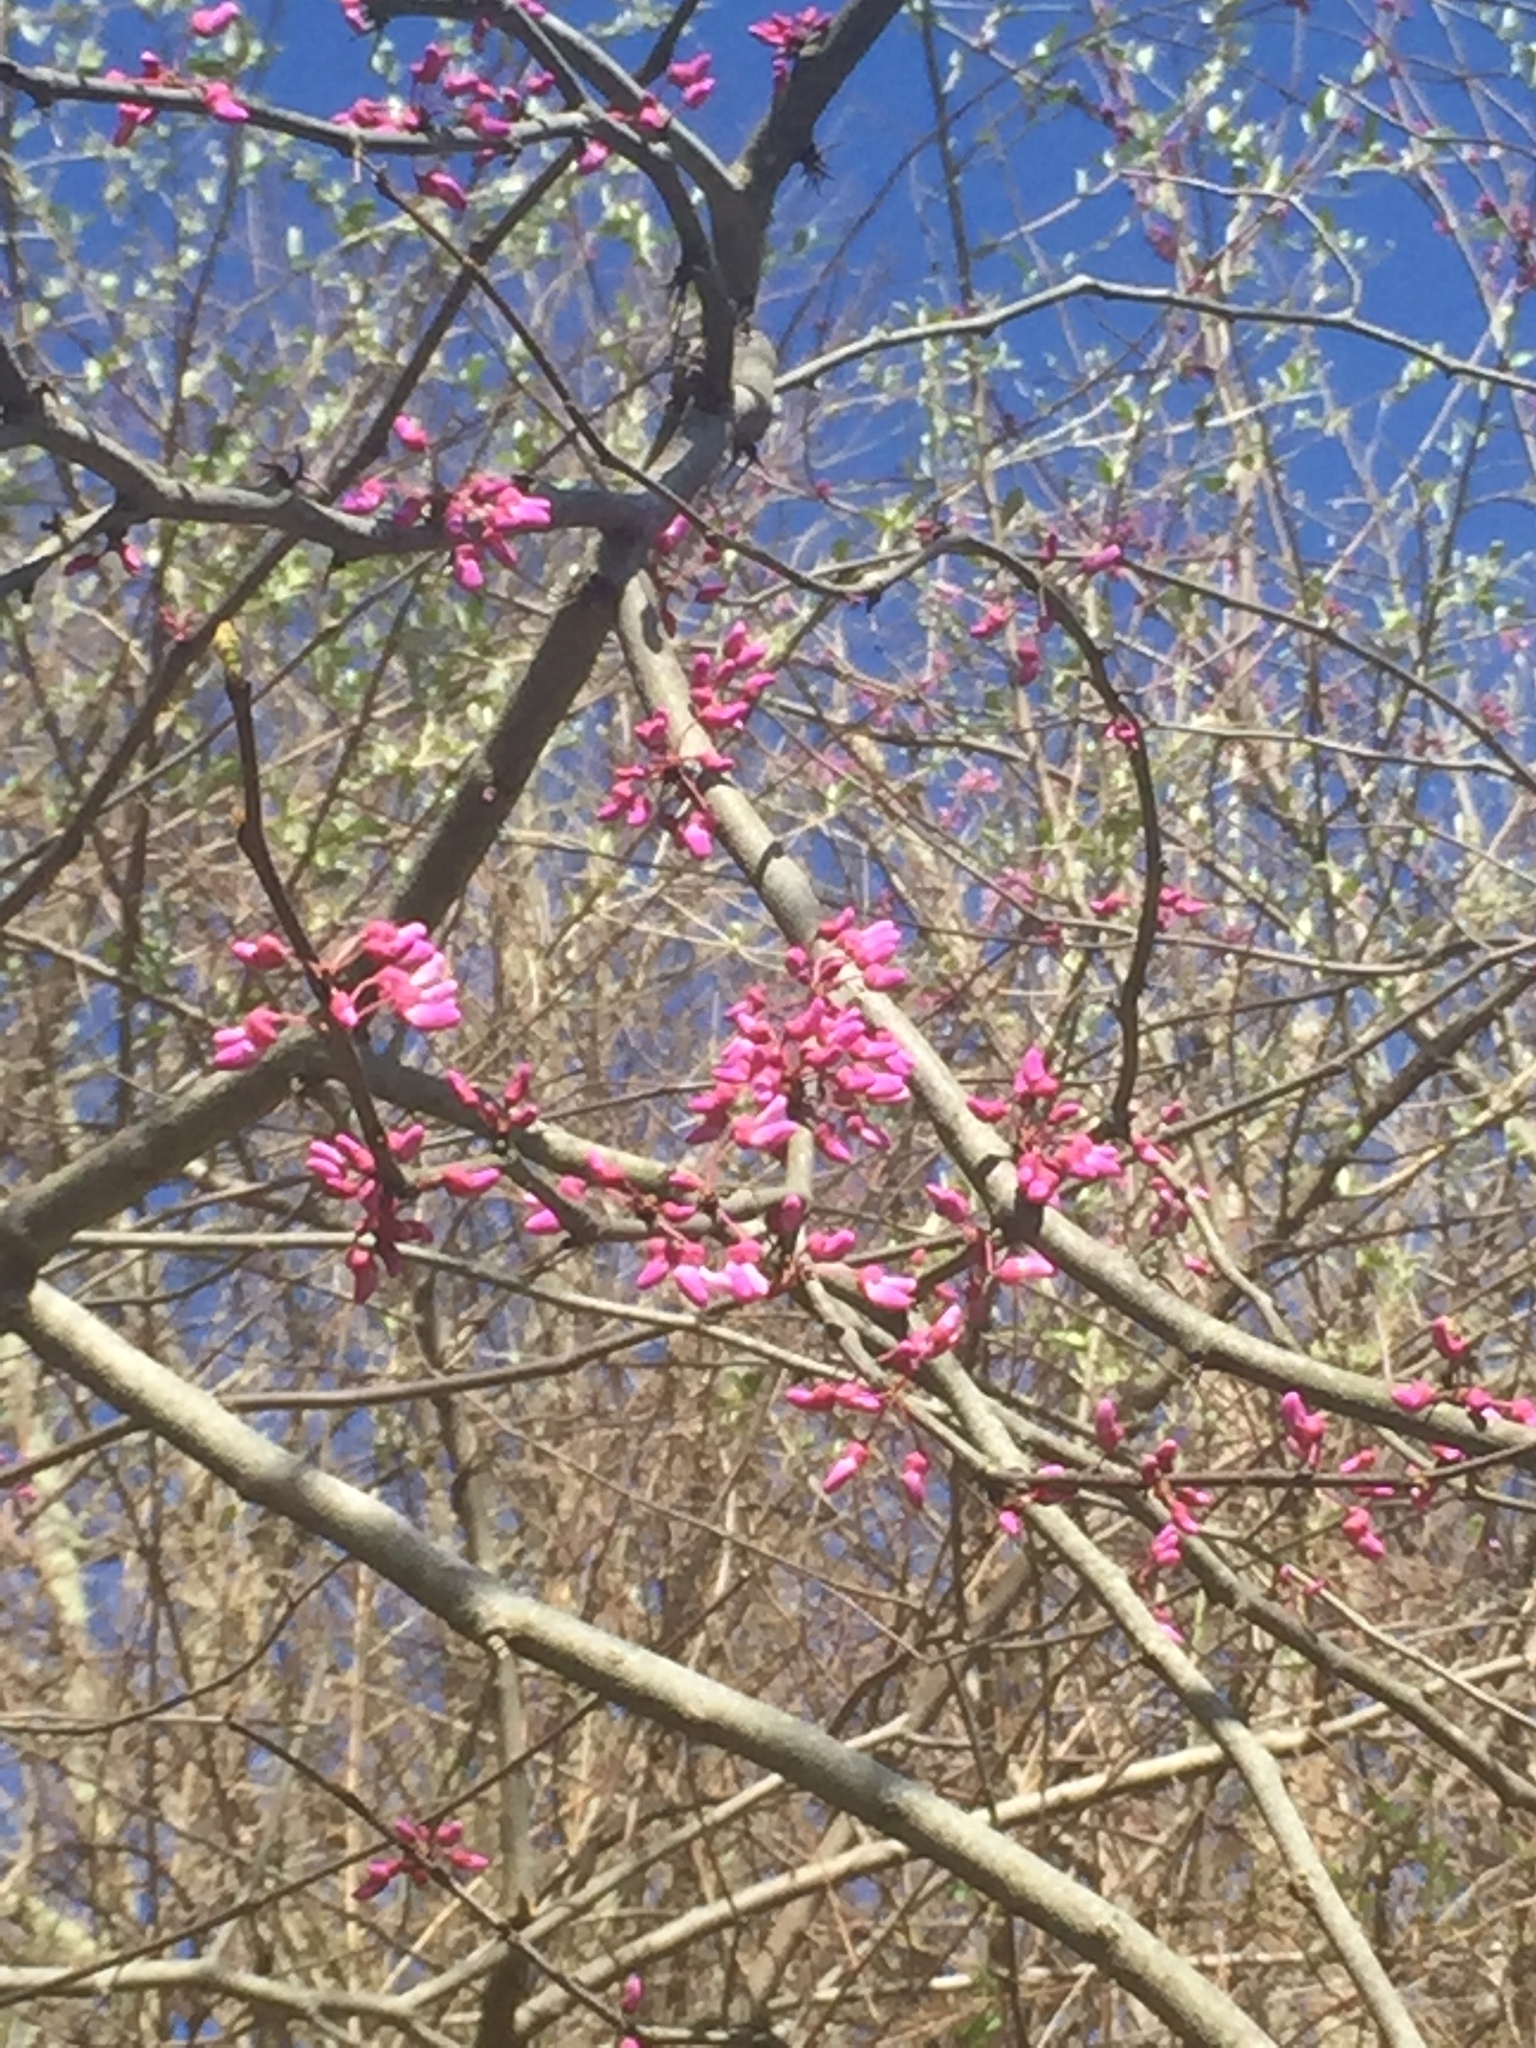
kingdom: Plantae
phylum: Tracheophyta
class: Magnoliopsida
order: Fabales
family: Fabaceae
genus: Cercis
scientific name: Cercis canadensis
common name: Eastern redbud
